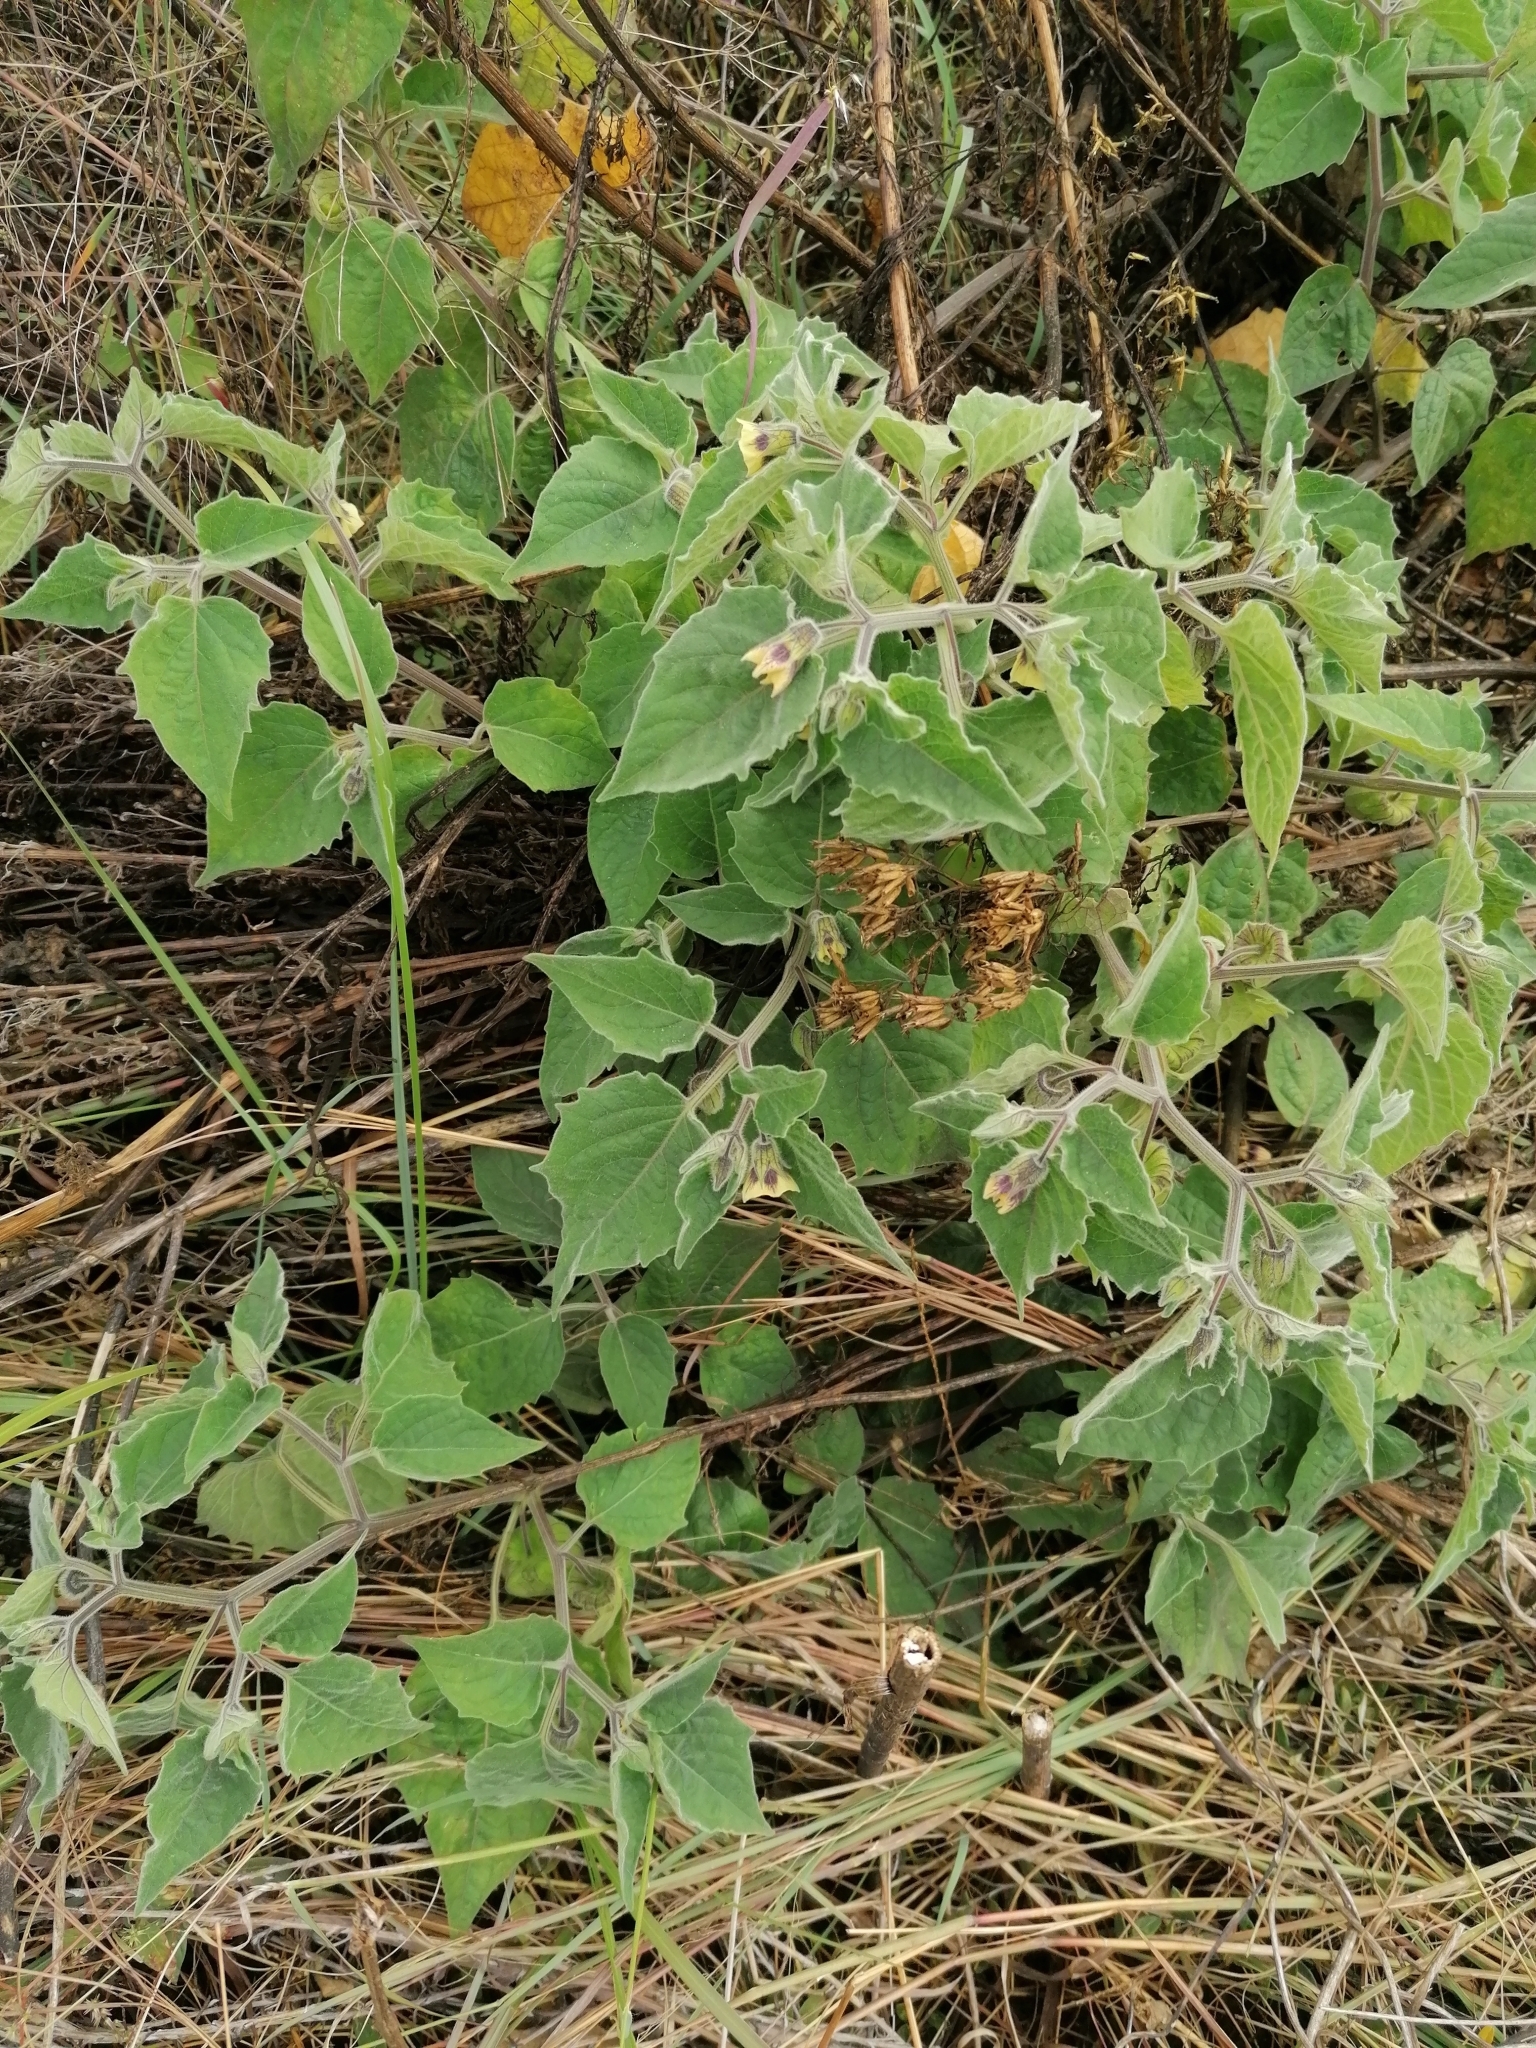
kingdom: Plantae
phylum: Tracheophyta
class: Magnoliopsida
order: Solanales
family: Solanaceae
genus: Physalis
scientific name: Physalis peruviana
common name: Cape-gooseberry
